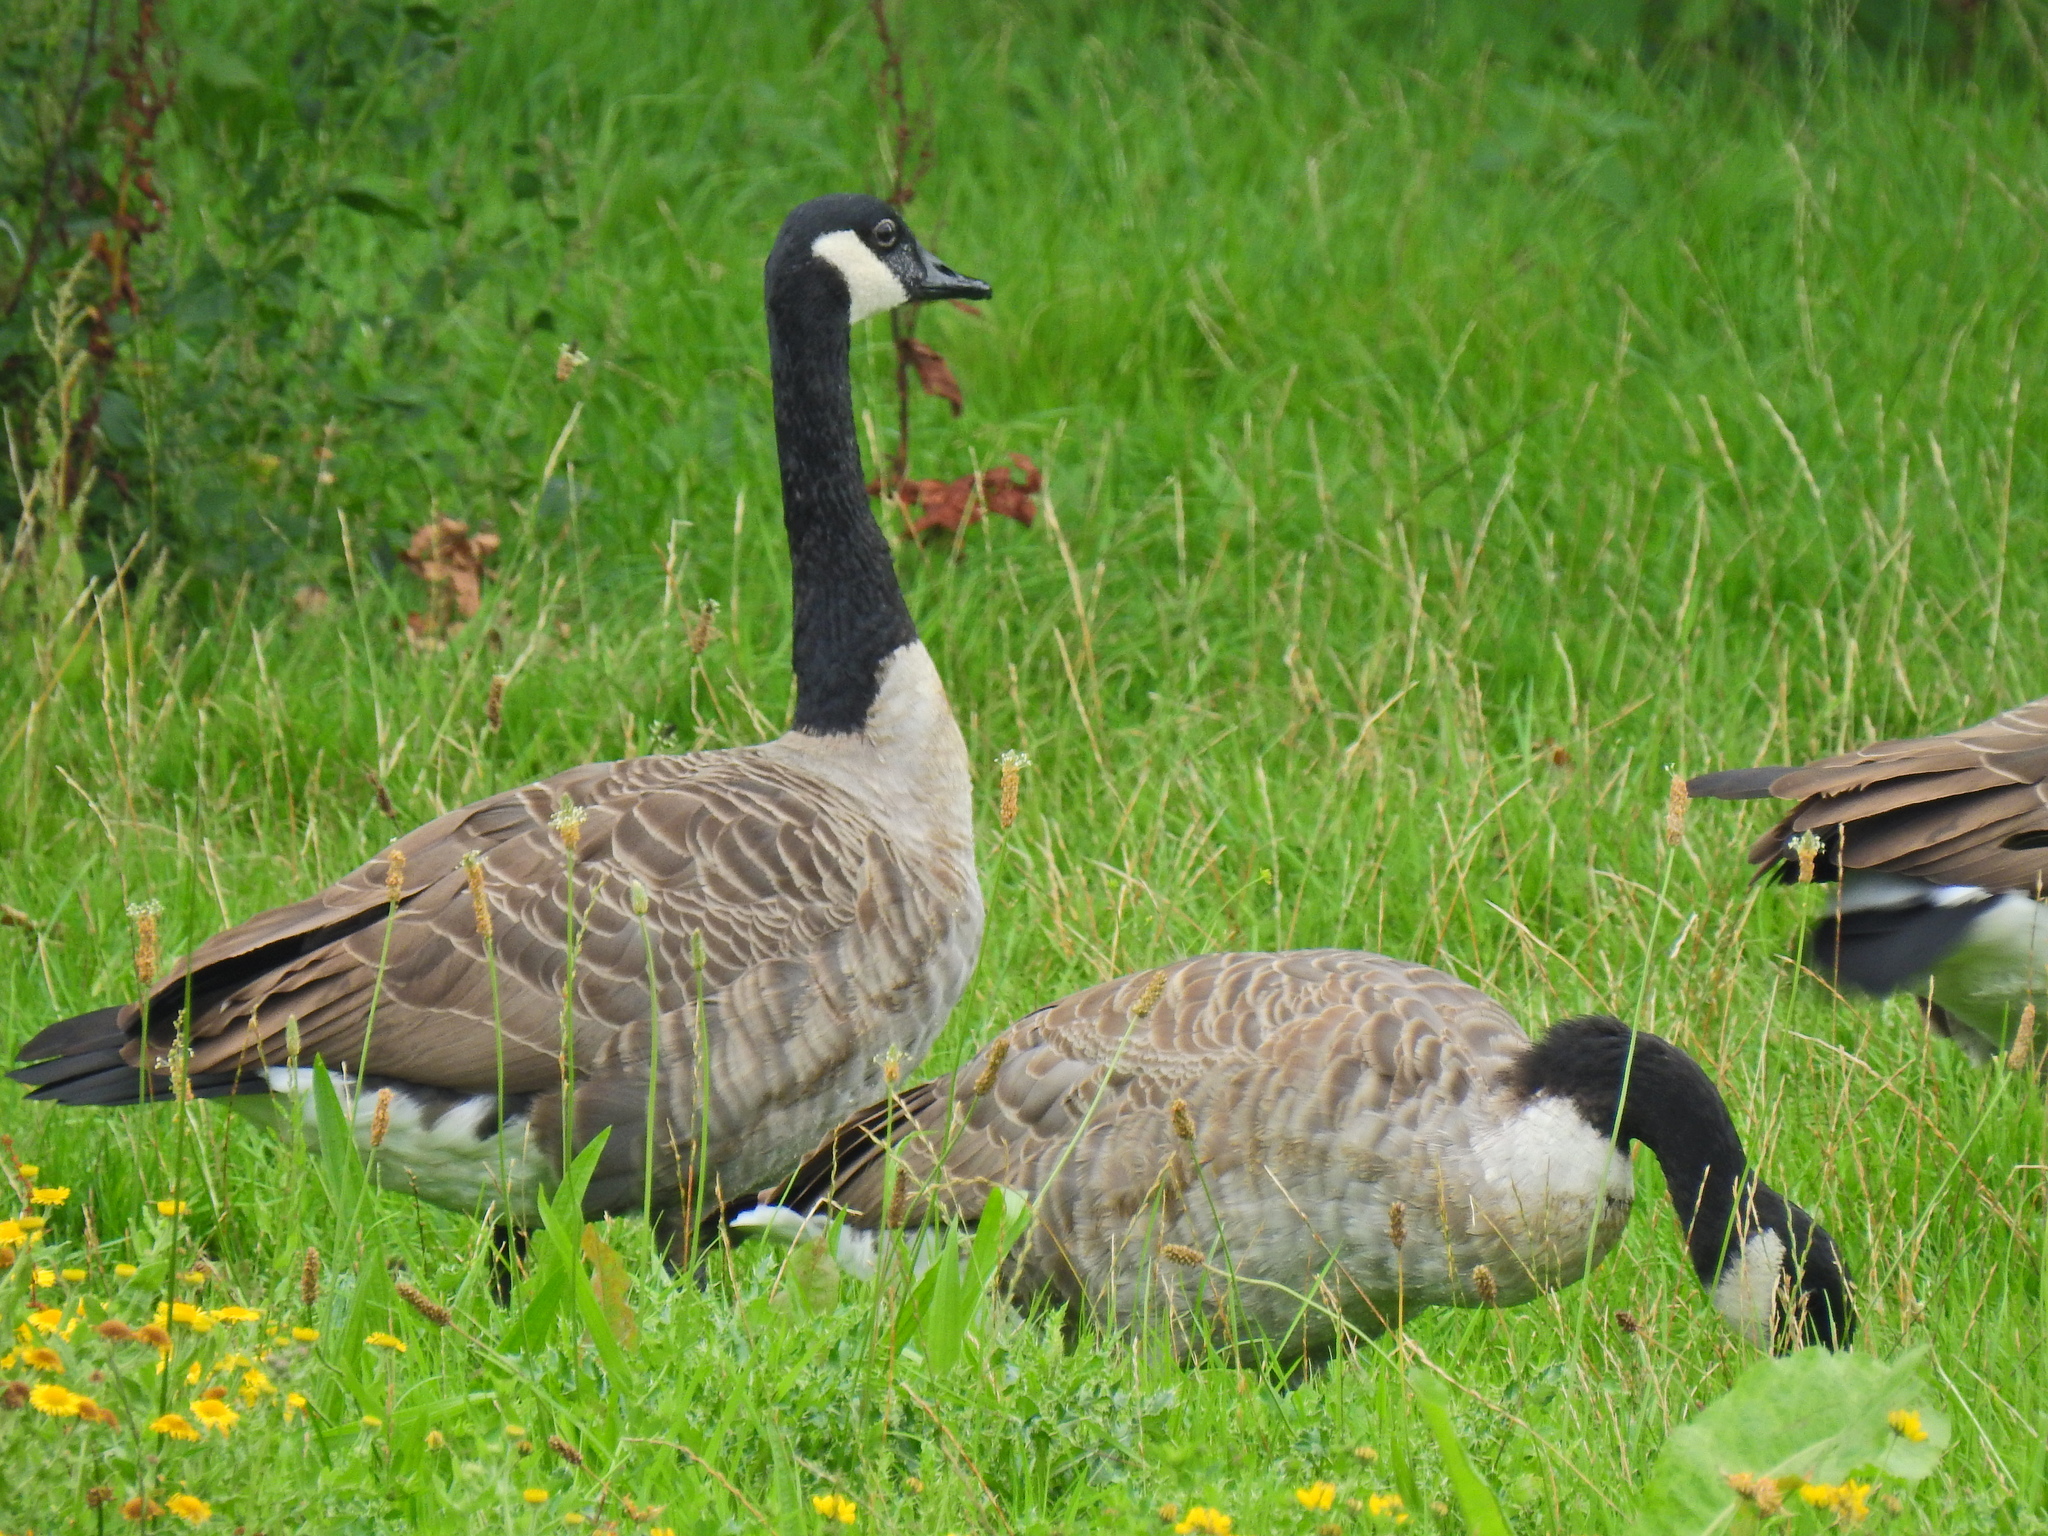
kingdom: Animalia
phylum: Chordata
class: Aves
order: Anseriformes
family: Anatidae
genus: Branta
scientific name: Branta canadensis
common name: Canada goose
